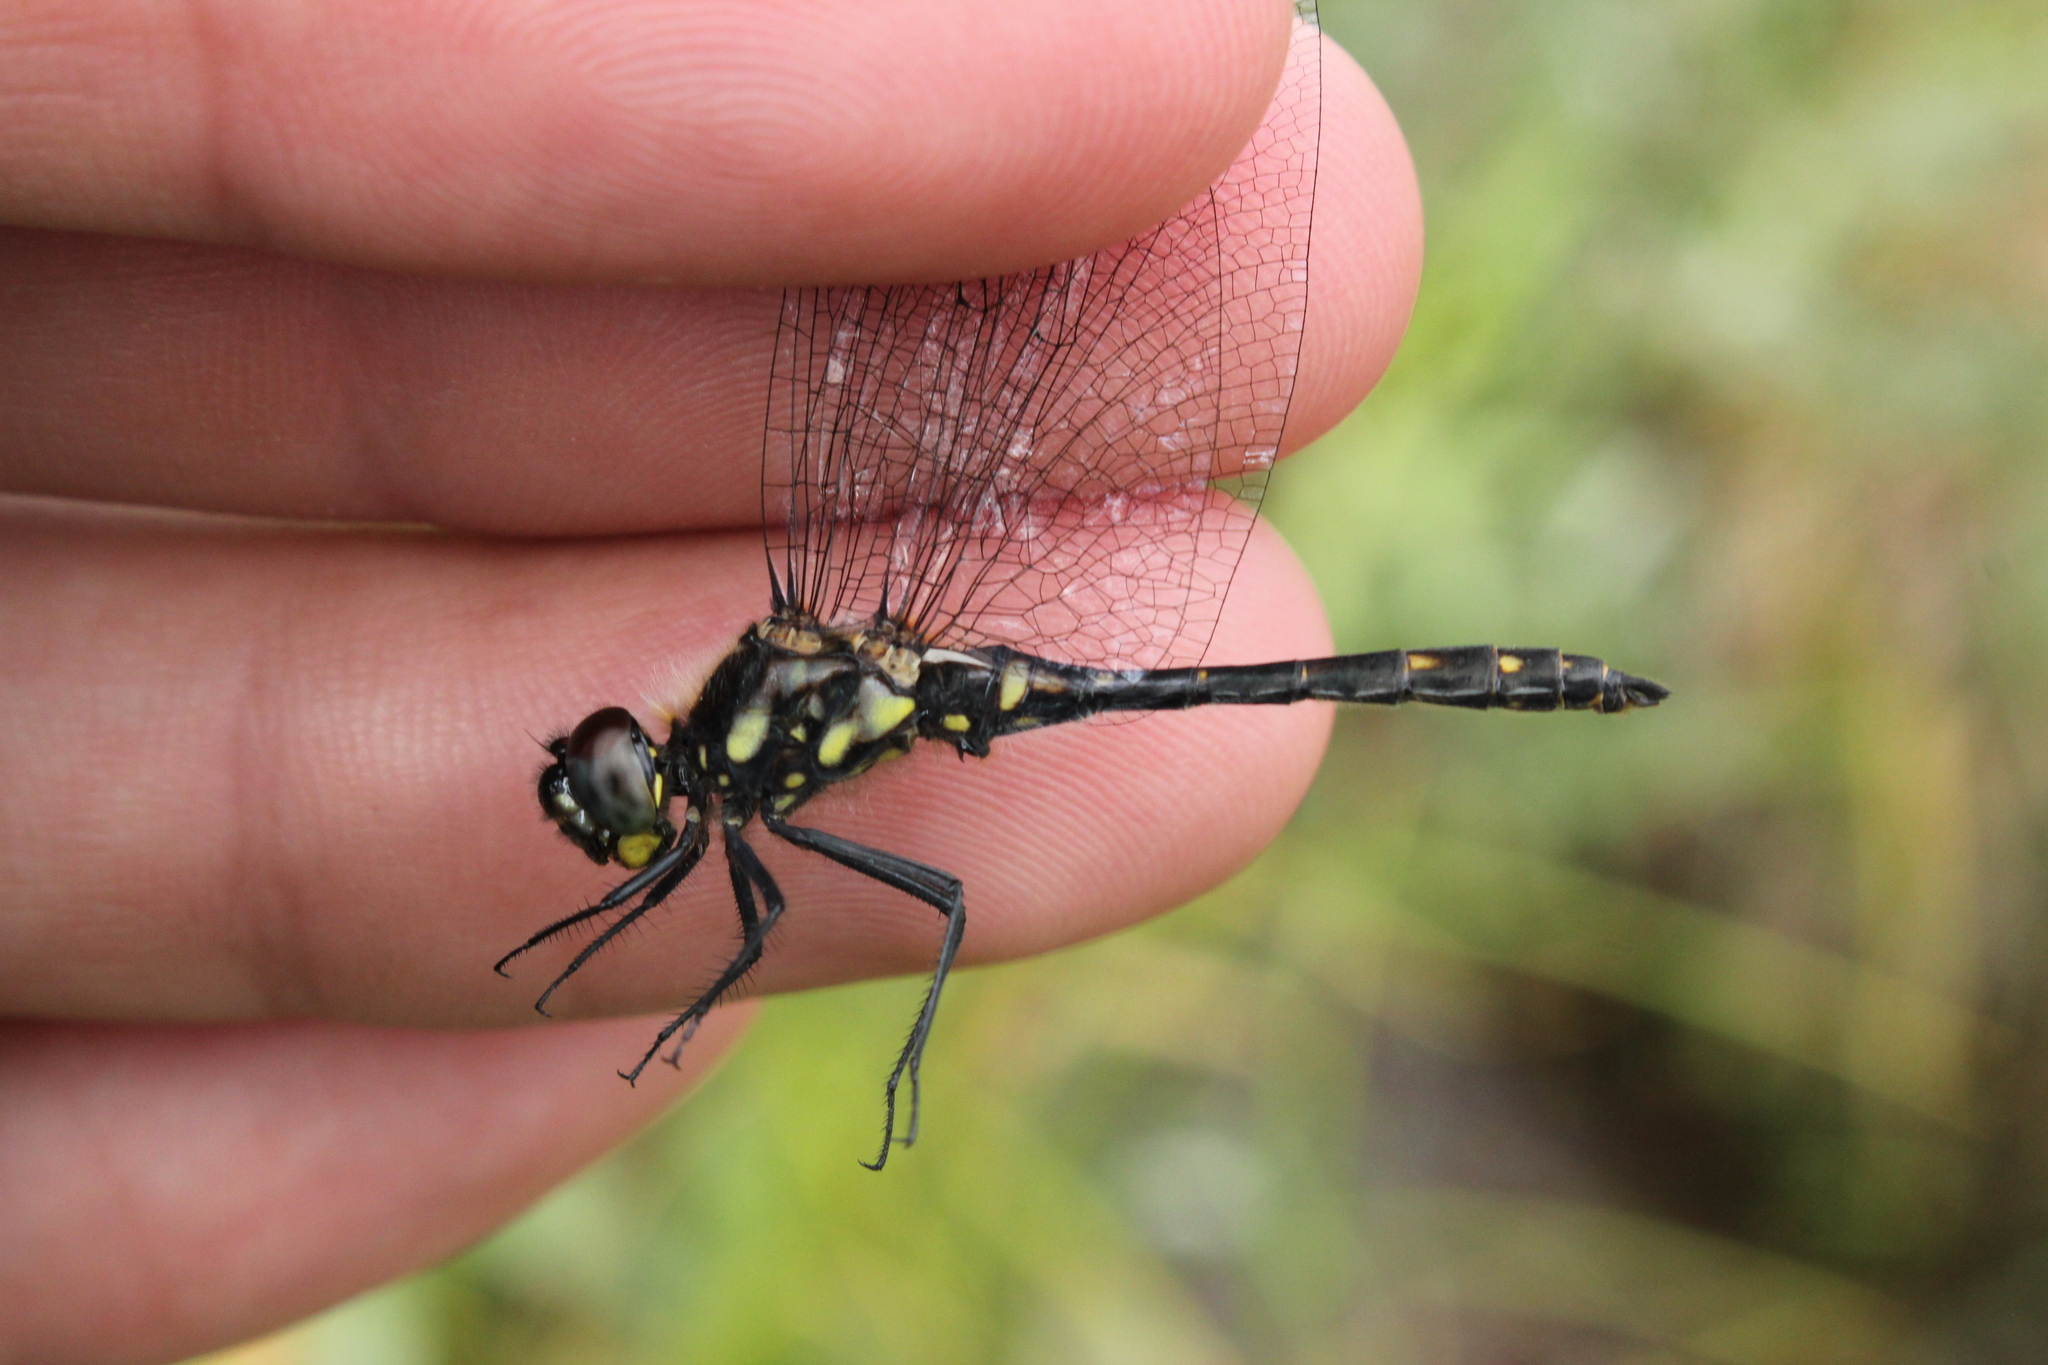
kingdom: Animalia
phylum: Arthropoda
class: Insecta
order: Odonata
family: Libellulidae
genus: Sympetrum
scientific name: Sympetrum danae
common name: Black darter
